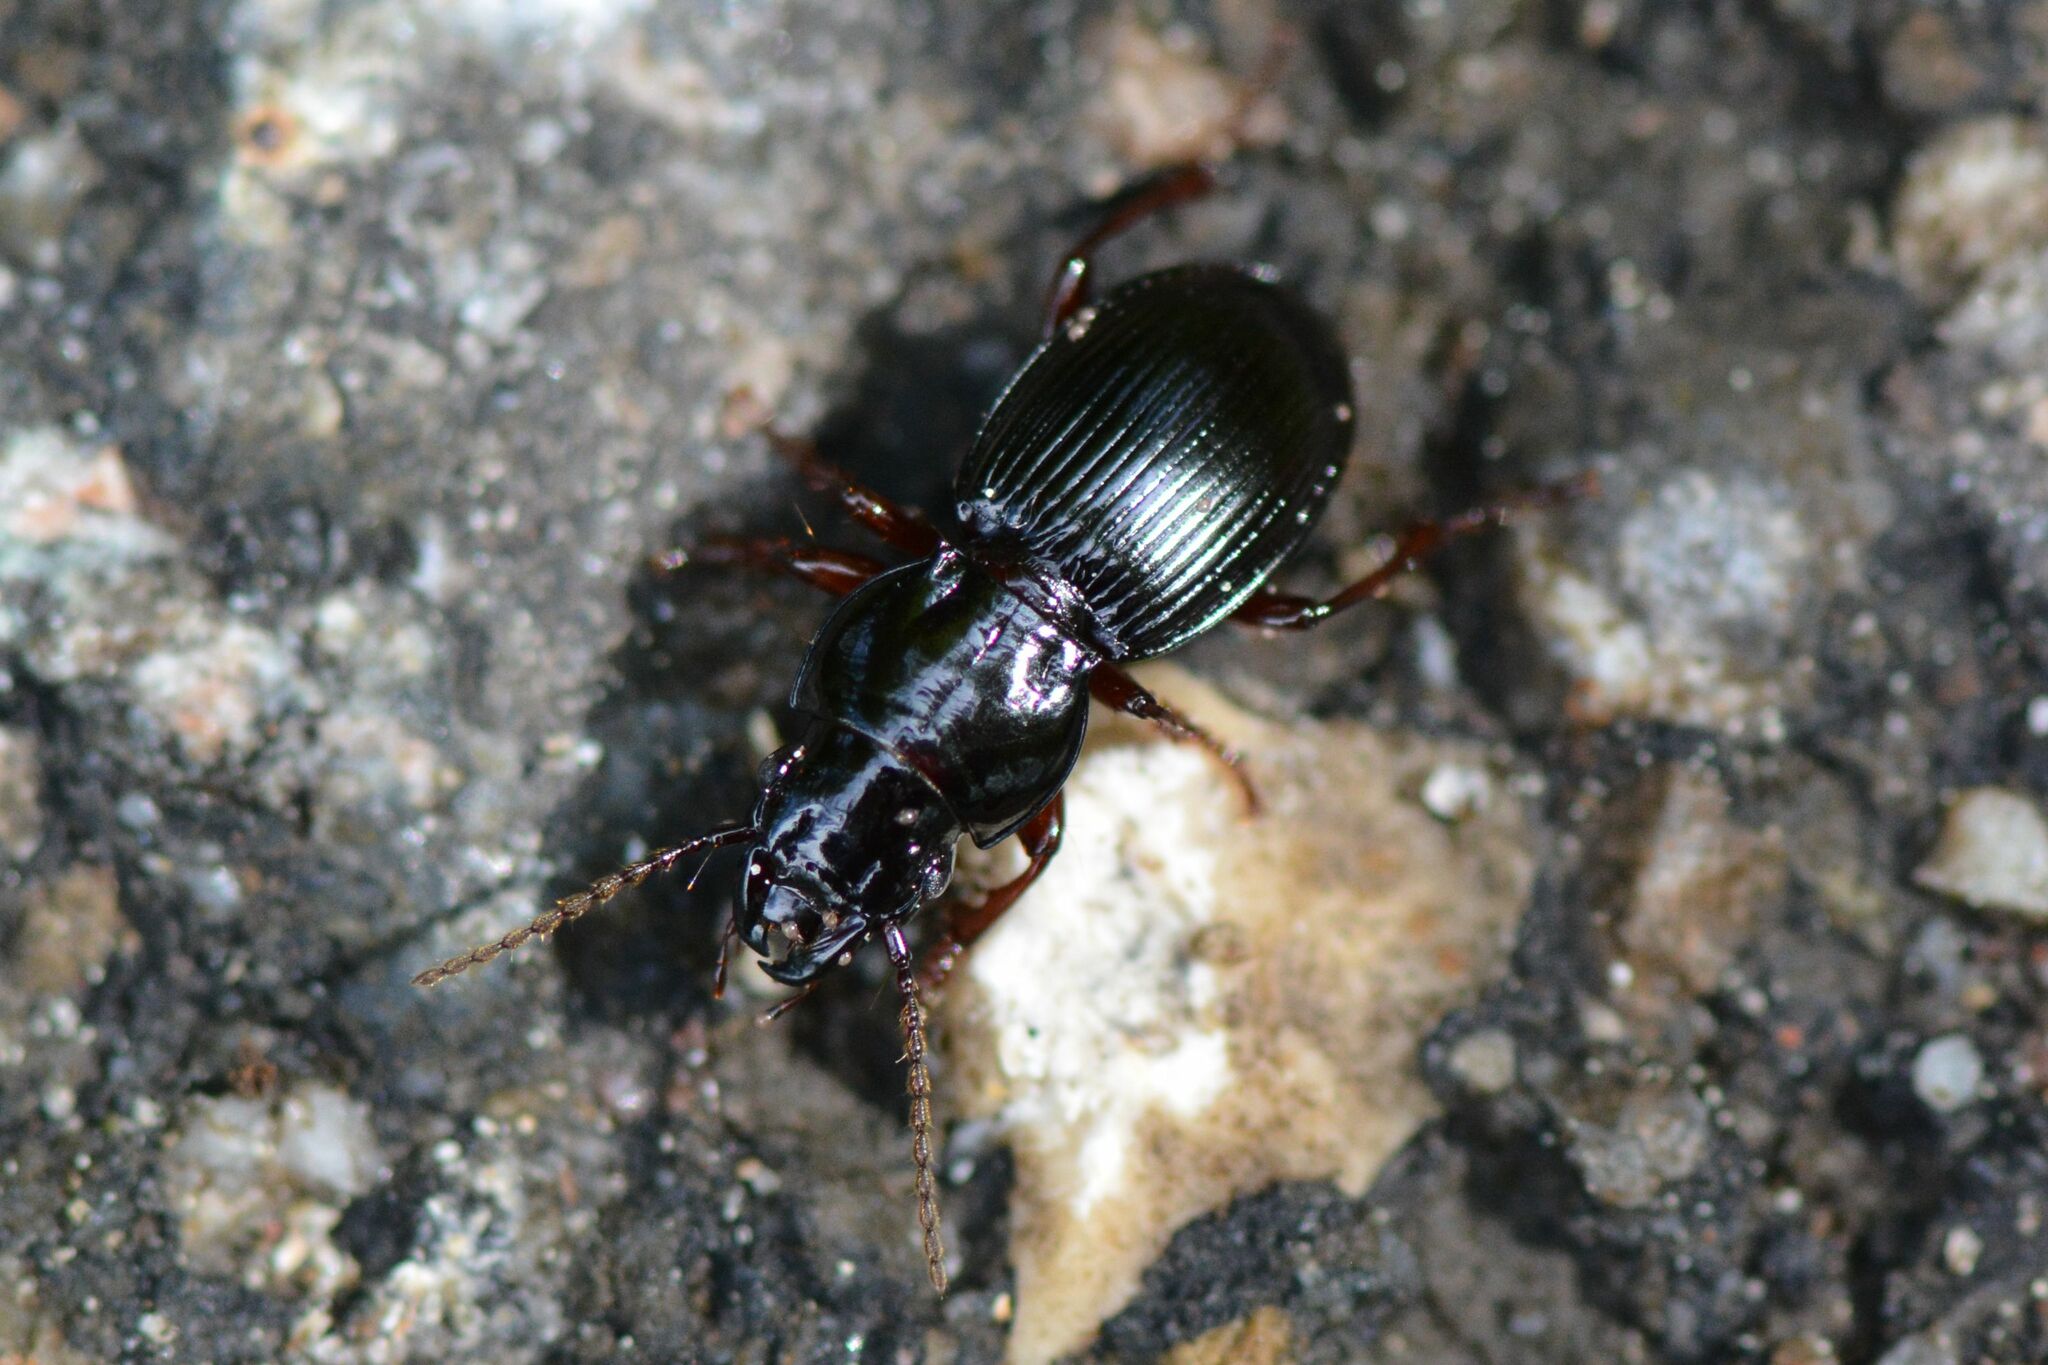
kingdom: Animalia
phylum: Arthropoda
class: Insecta
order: Coleoptera
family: Carabidae
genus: Molops
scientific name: Molops piceus
